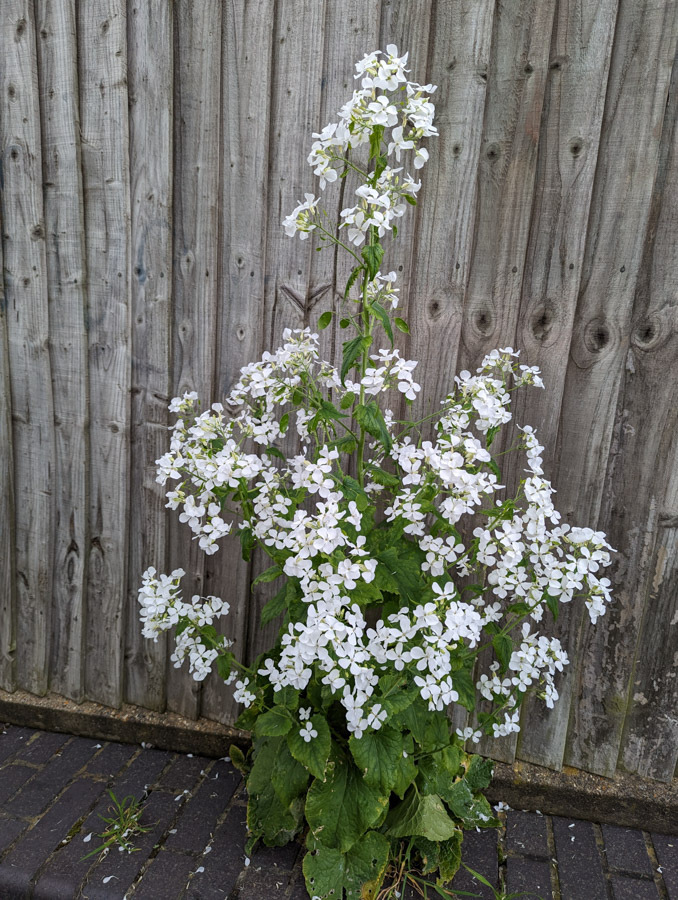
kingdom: Plantae
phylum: Tracheophyta
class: Magnoliopsida
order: Brassicales
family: Brassicaceae
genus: Lunaria
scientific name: Lunaria annua
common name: Honesty
